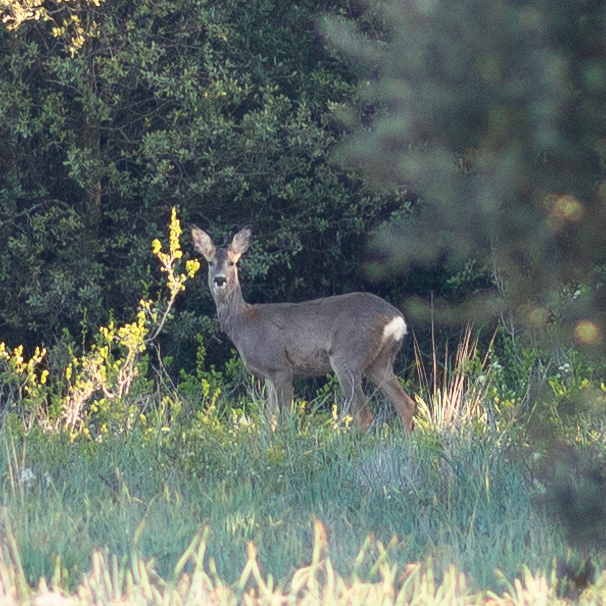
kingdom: Animalia
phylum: Chordata
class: Mammalia
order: Artiodactyla
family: Cervidae
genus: Capreolus
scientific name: Capreolus capreolus
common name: Western roe deer
